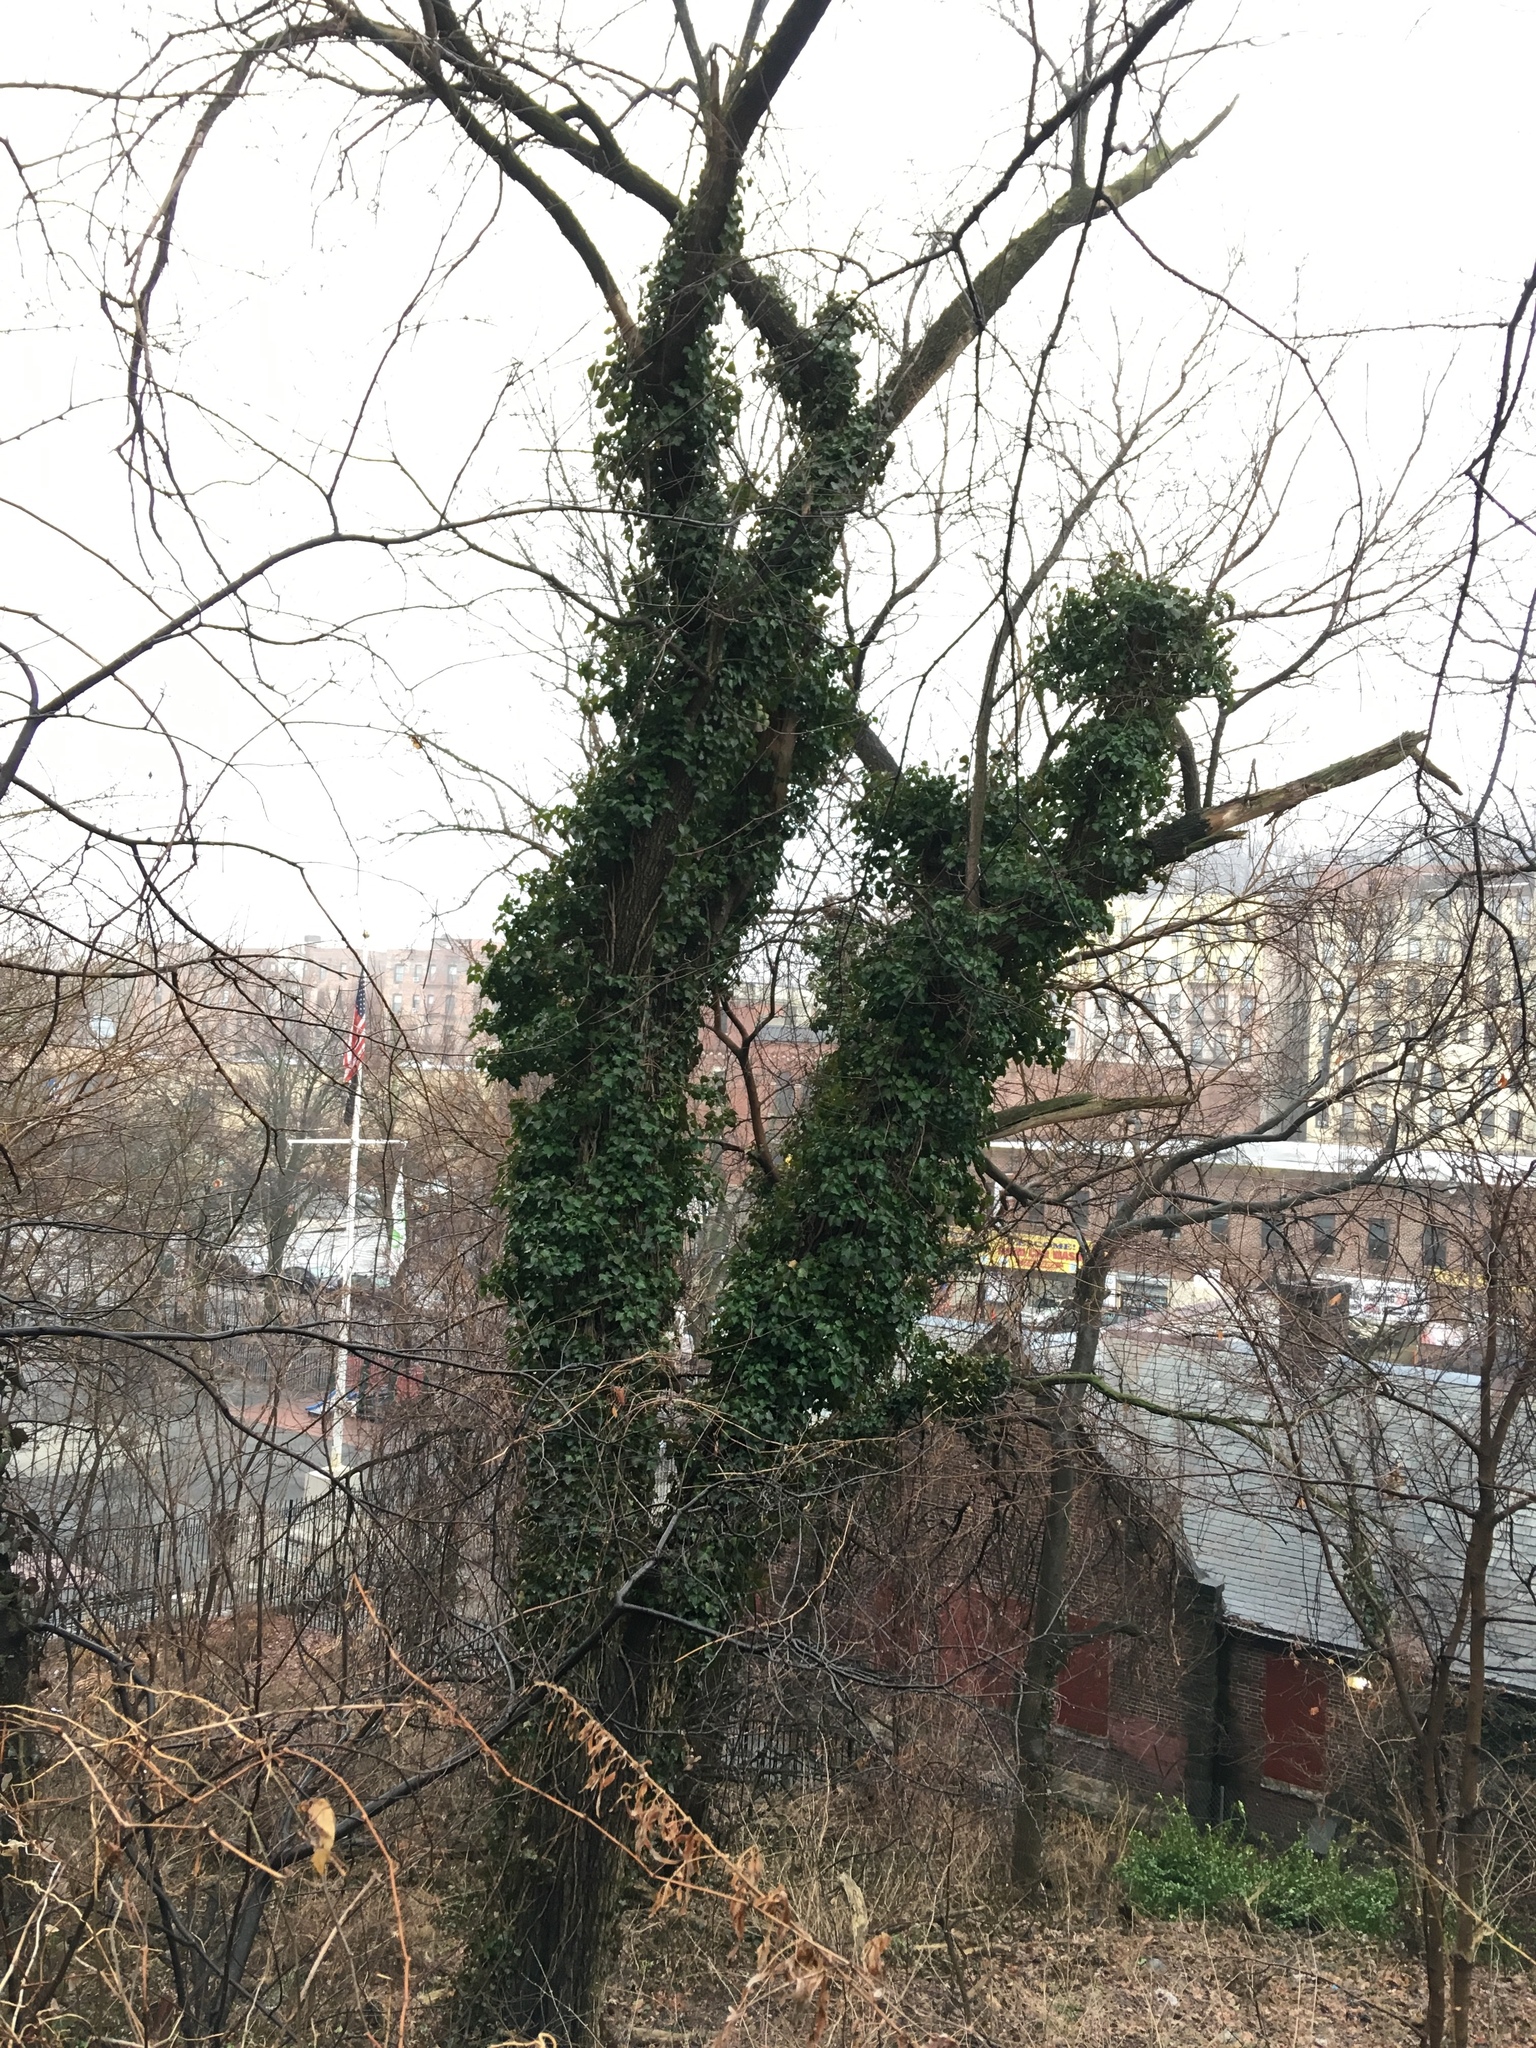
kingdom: Plantae
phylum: Tracheophyta
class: Magnoliopsida
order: Apiales
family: Araliaceae
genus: Hedera
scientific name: Hedera helix
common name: Ivy
